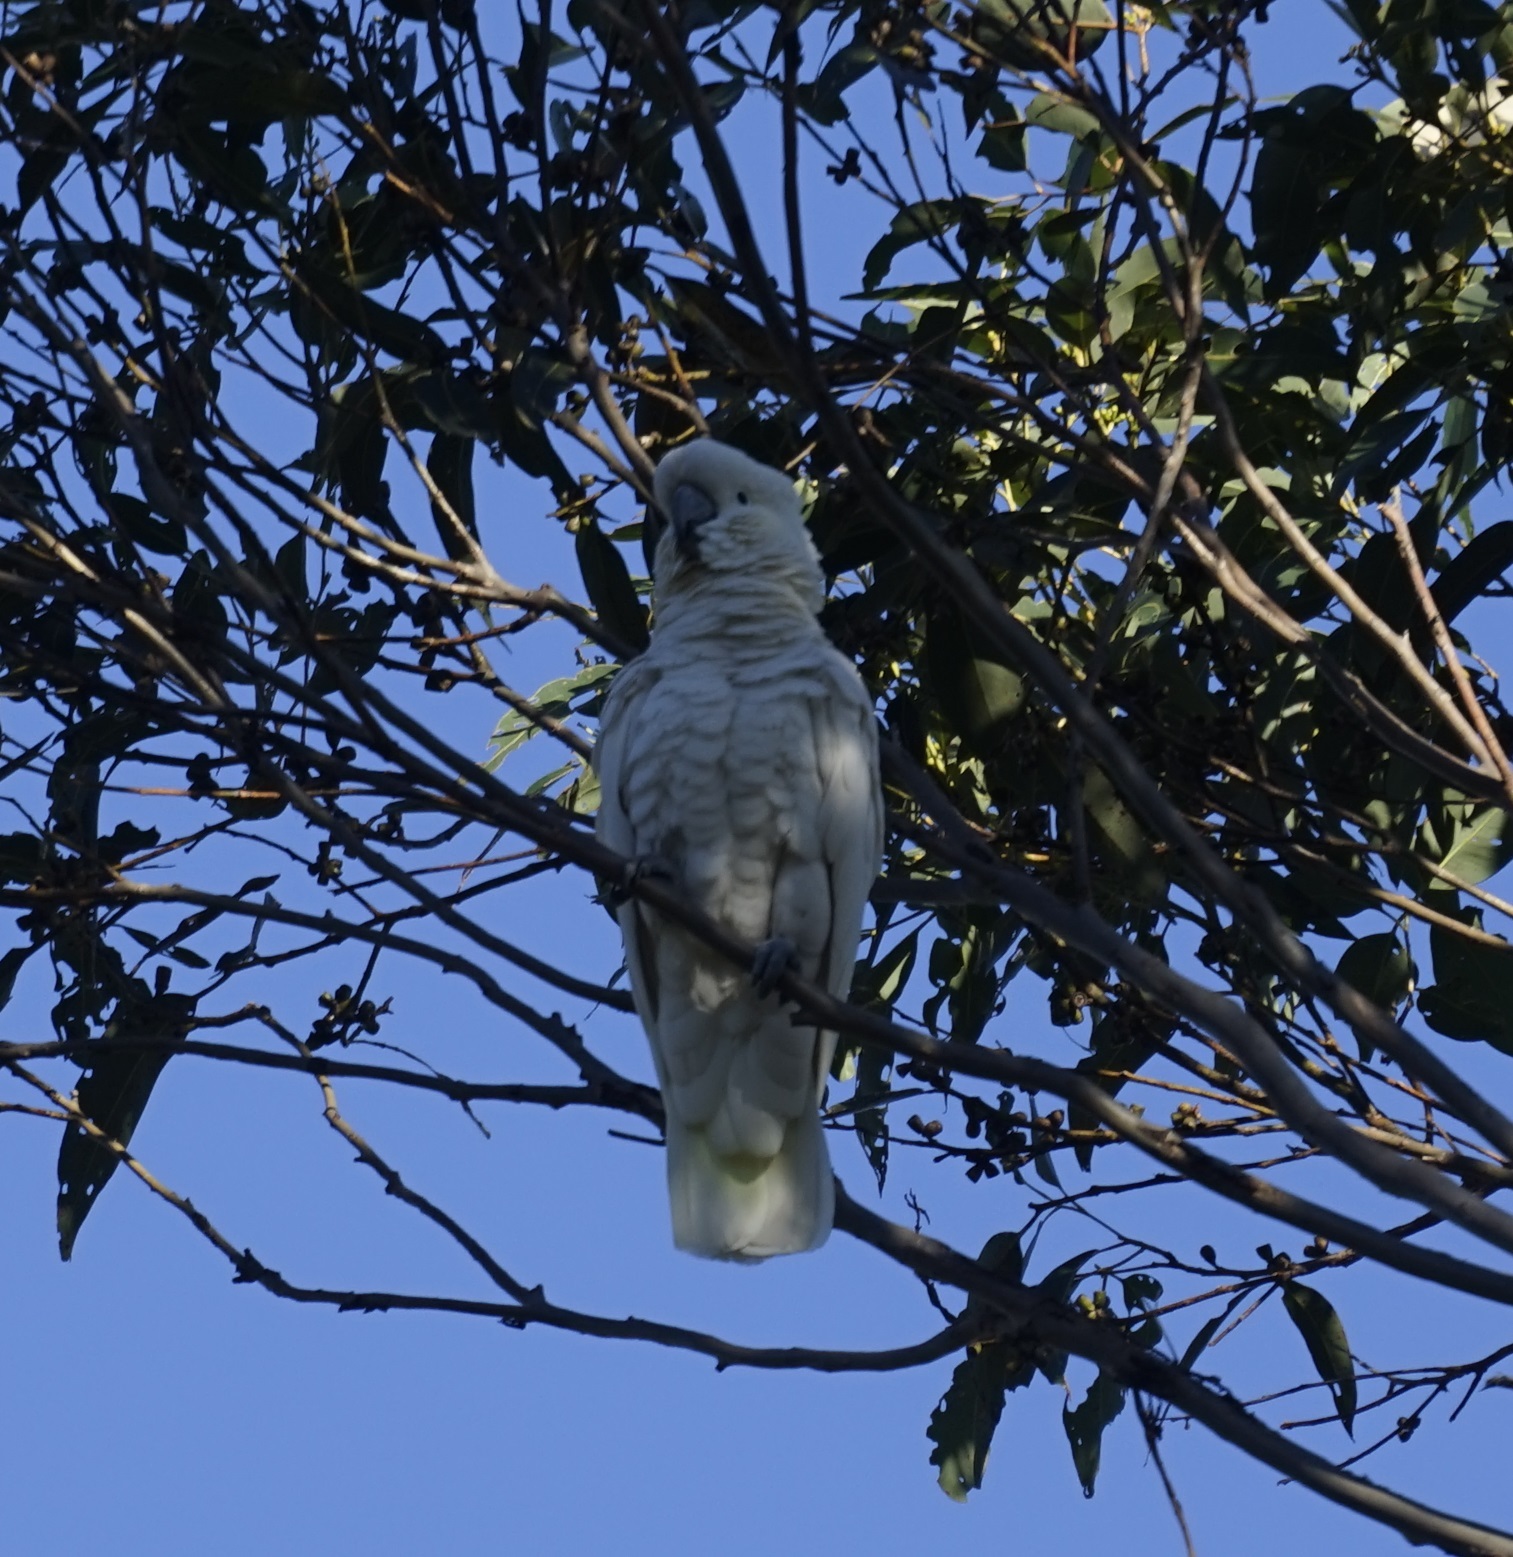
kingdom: Animalia
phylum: Chordata
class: Aves
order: Psittaciformes
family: Psittacidae
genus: Cacatua
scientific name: Cacatua galerita
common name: Sulphur-crested cockatoo
